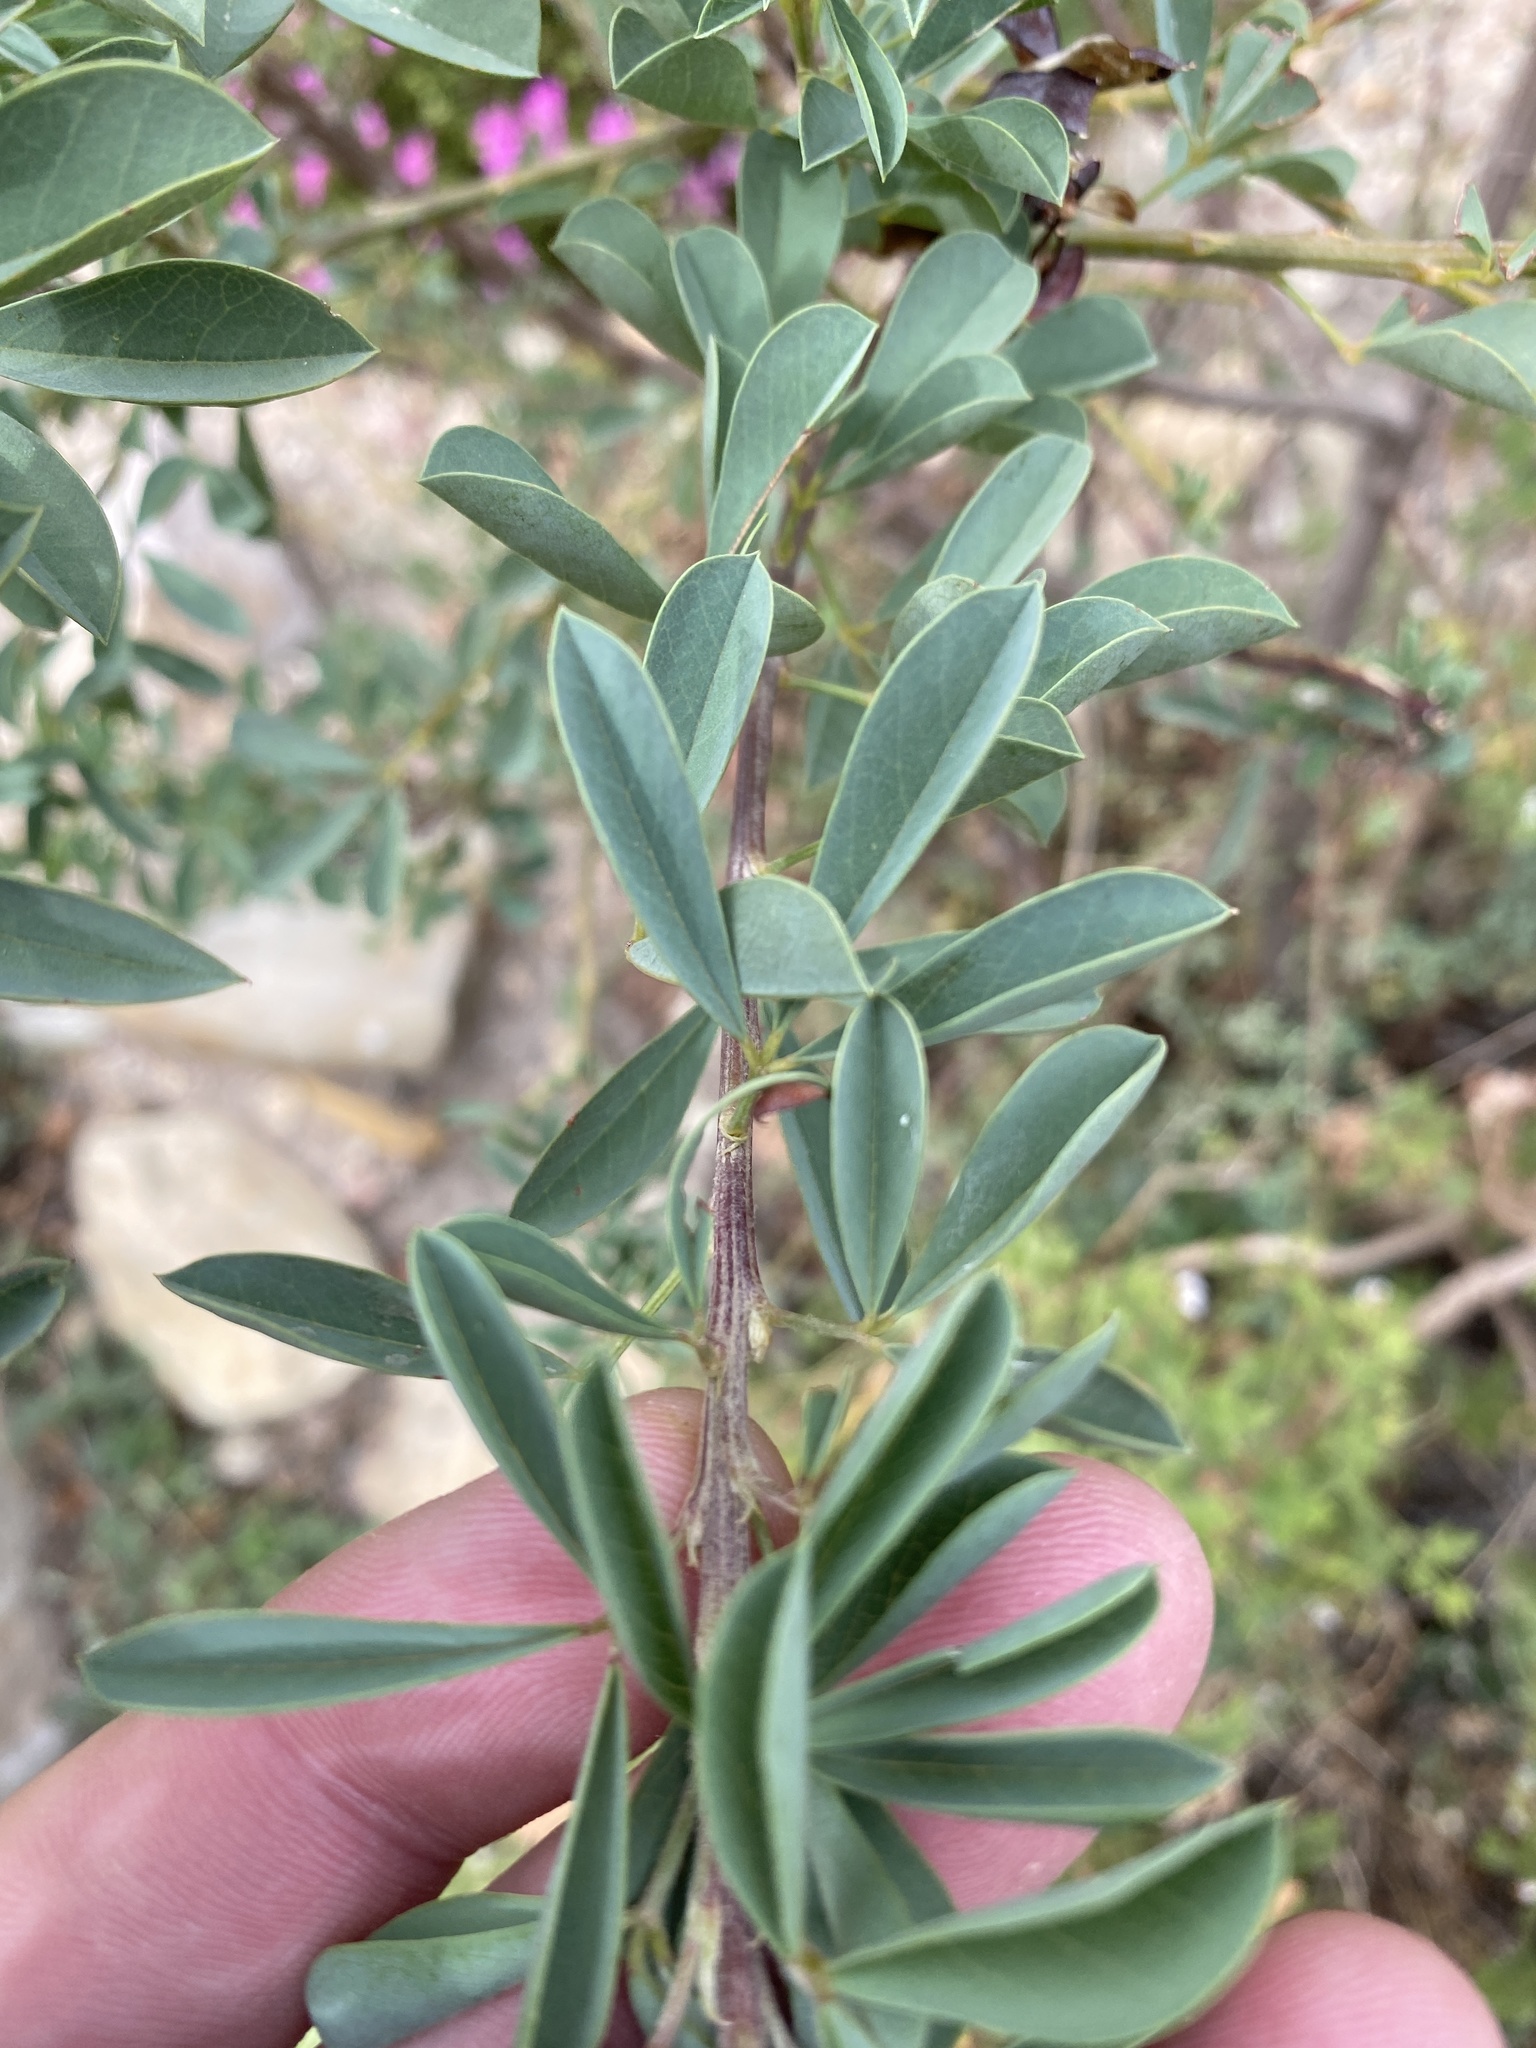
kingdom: Plantae
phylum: Tracheophyta
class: Magnoliopsida
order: Fabales
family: Fabaceae
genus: Hypocalyptus
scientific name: Hypocalyptus sophoroides
